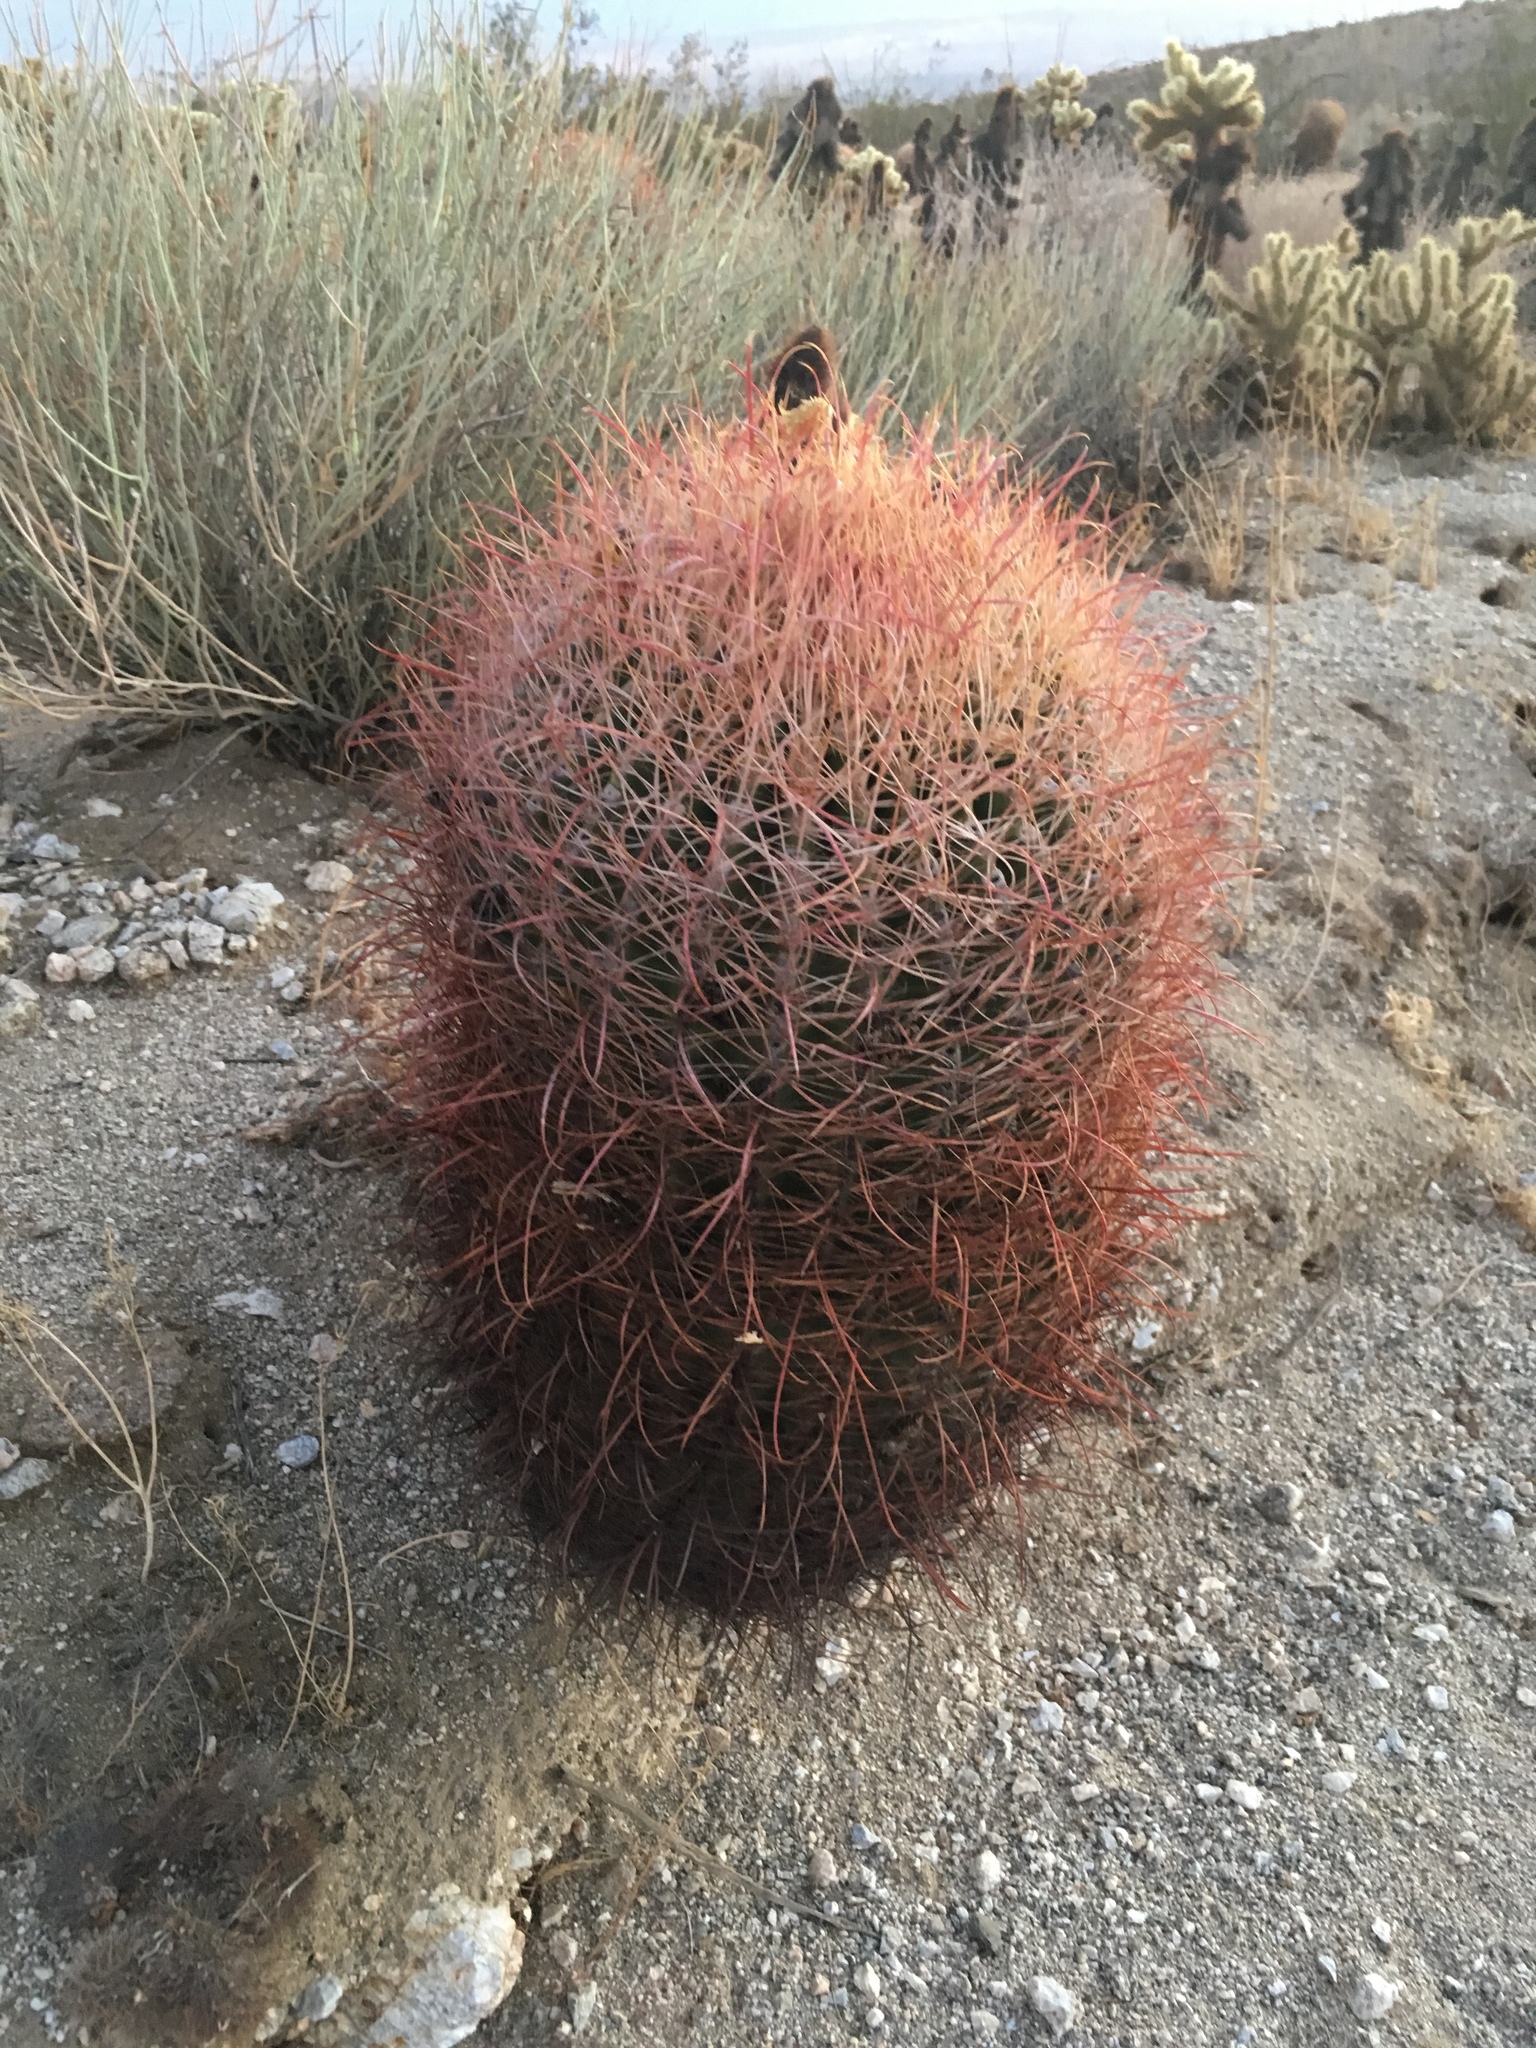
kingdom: Plantae
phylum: Tracheophyta
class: Magnoliopsida
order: Caryophyllales
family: Cactaceae
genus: Ferocactus
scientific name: Ferocactus cylindraceus
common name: California barrel cactus
